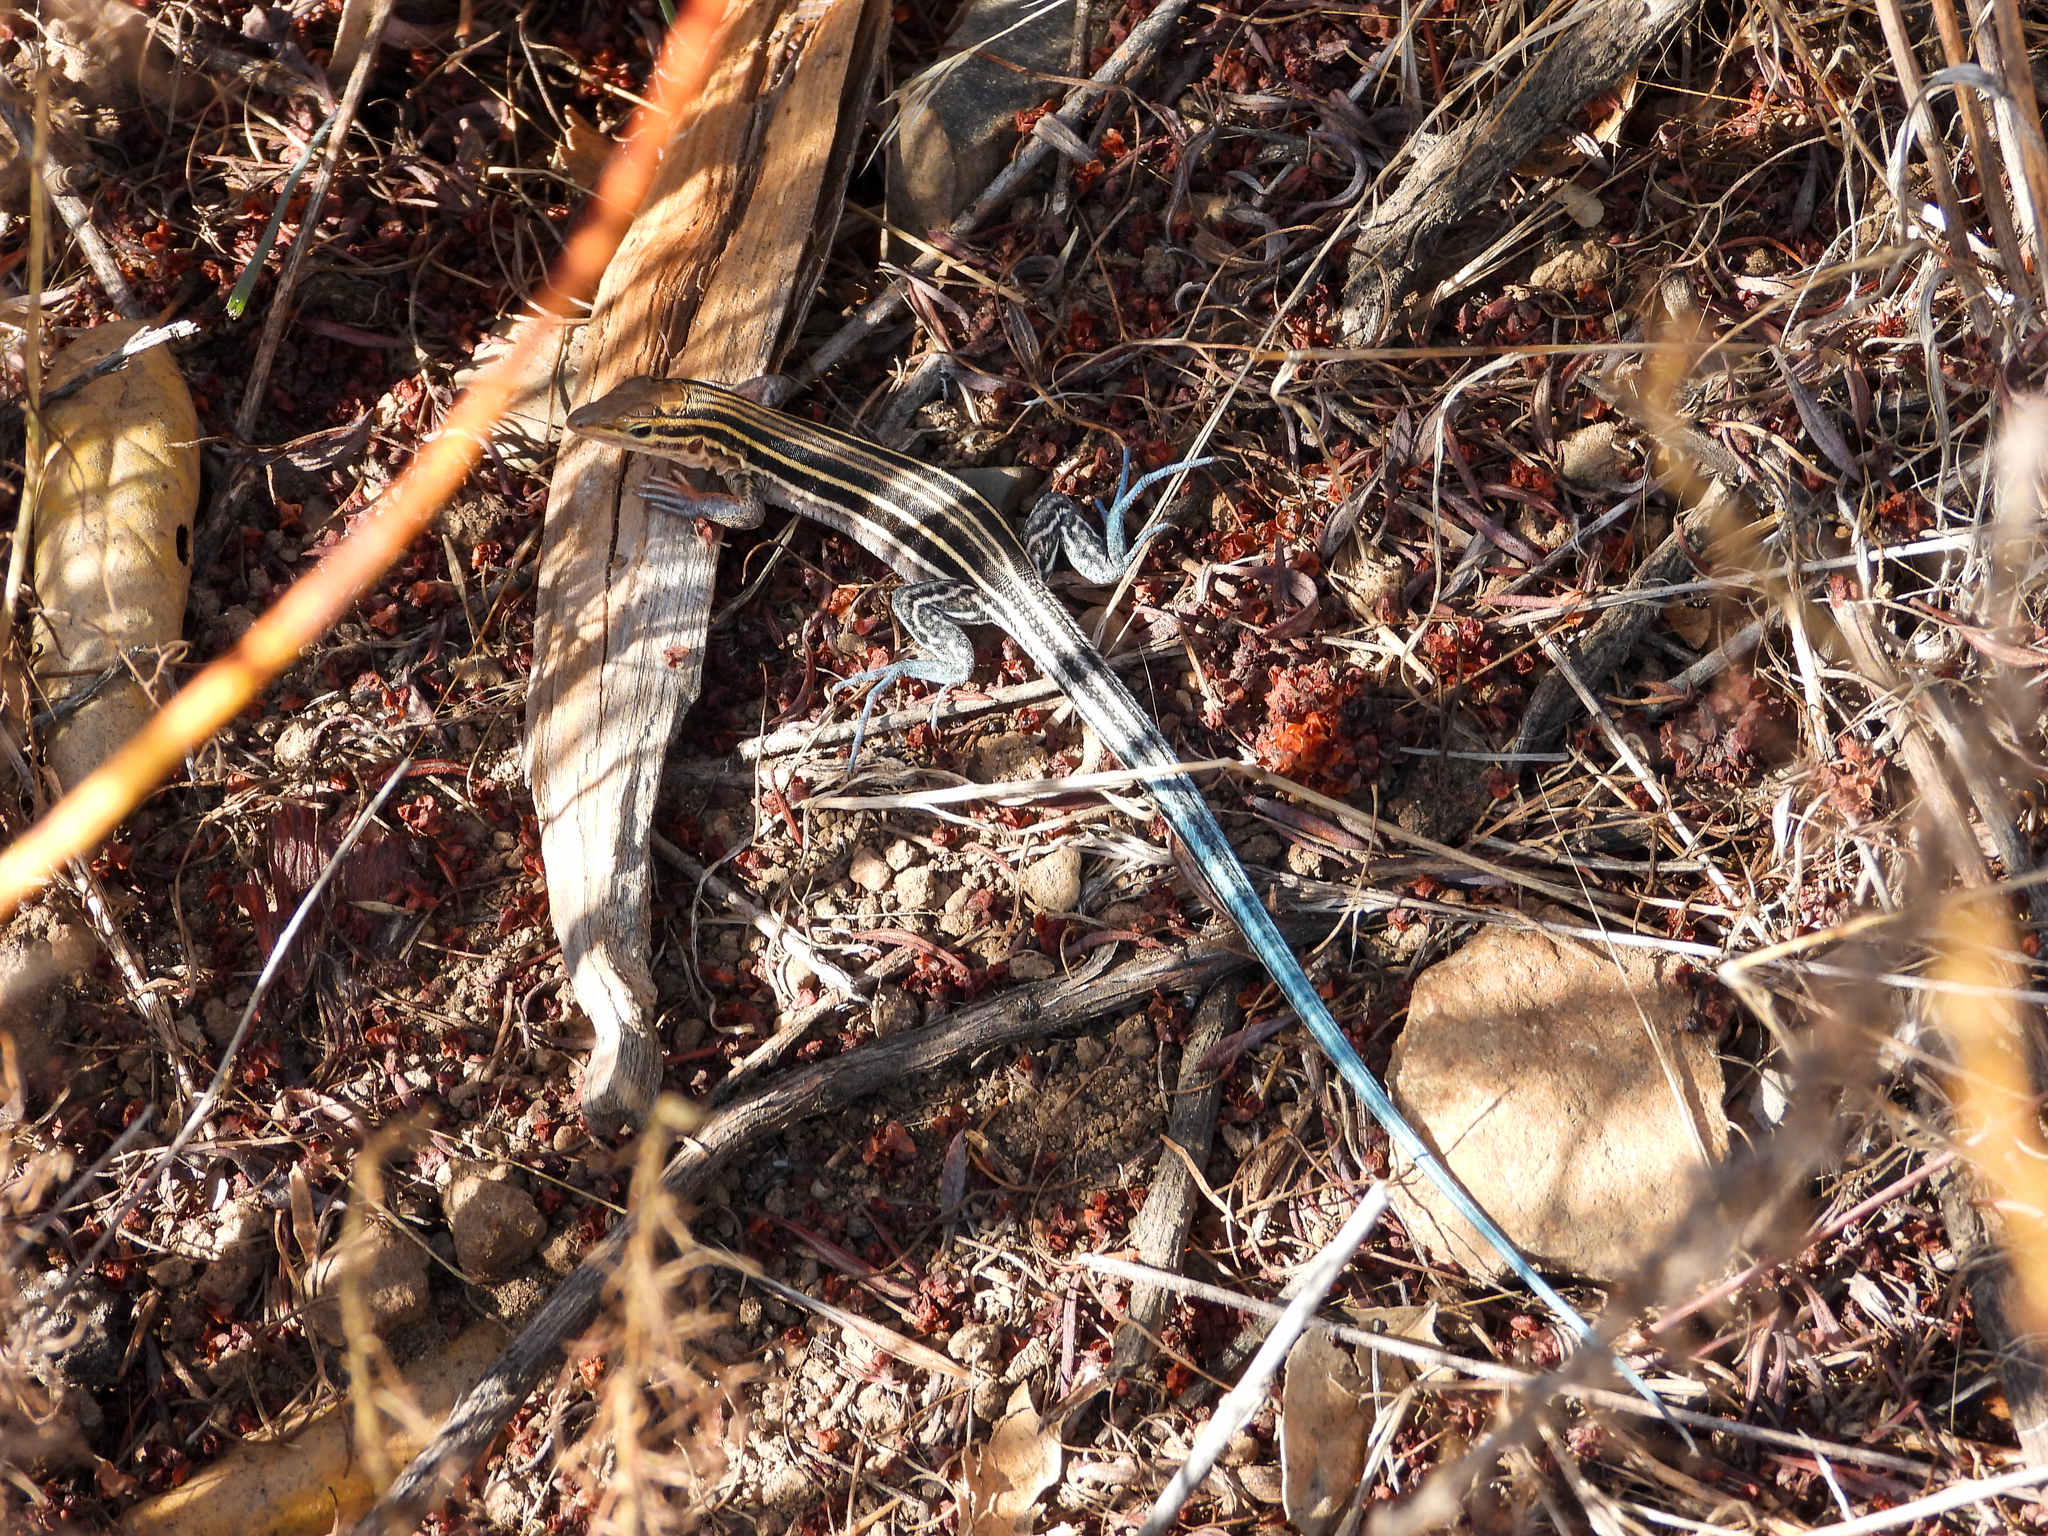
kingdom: Animalia
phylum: Chordata
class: Squamata
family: Teiidae
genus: Aspidoscelis
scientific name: Aspidoscelis hyperythrus
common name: Orange-throated race-runner
